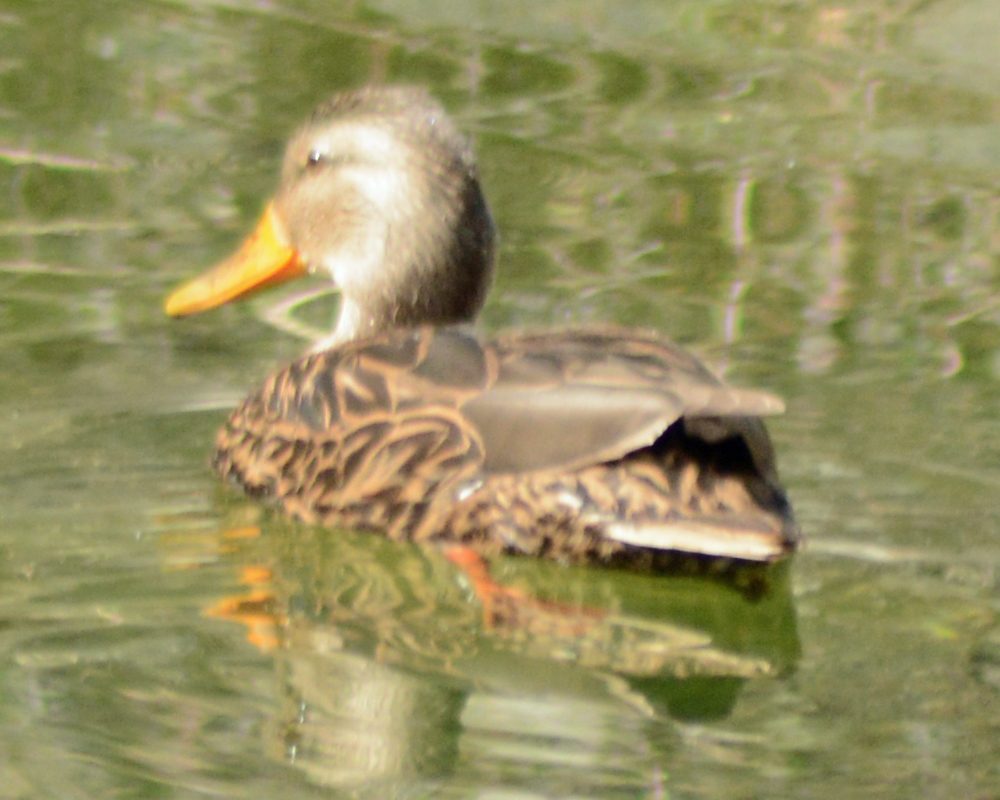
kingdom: Animalia
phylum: Chordata
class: Aves
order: Anseriformes
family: Anatidae
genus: Anas
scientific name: Anas diazi
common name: Mexican duck
